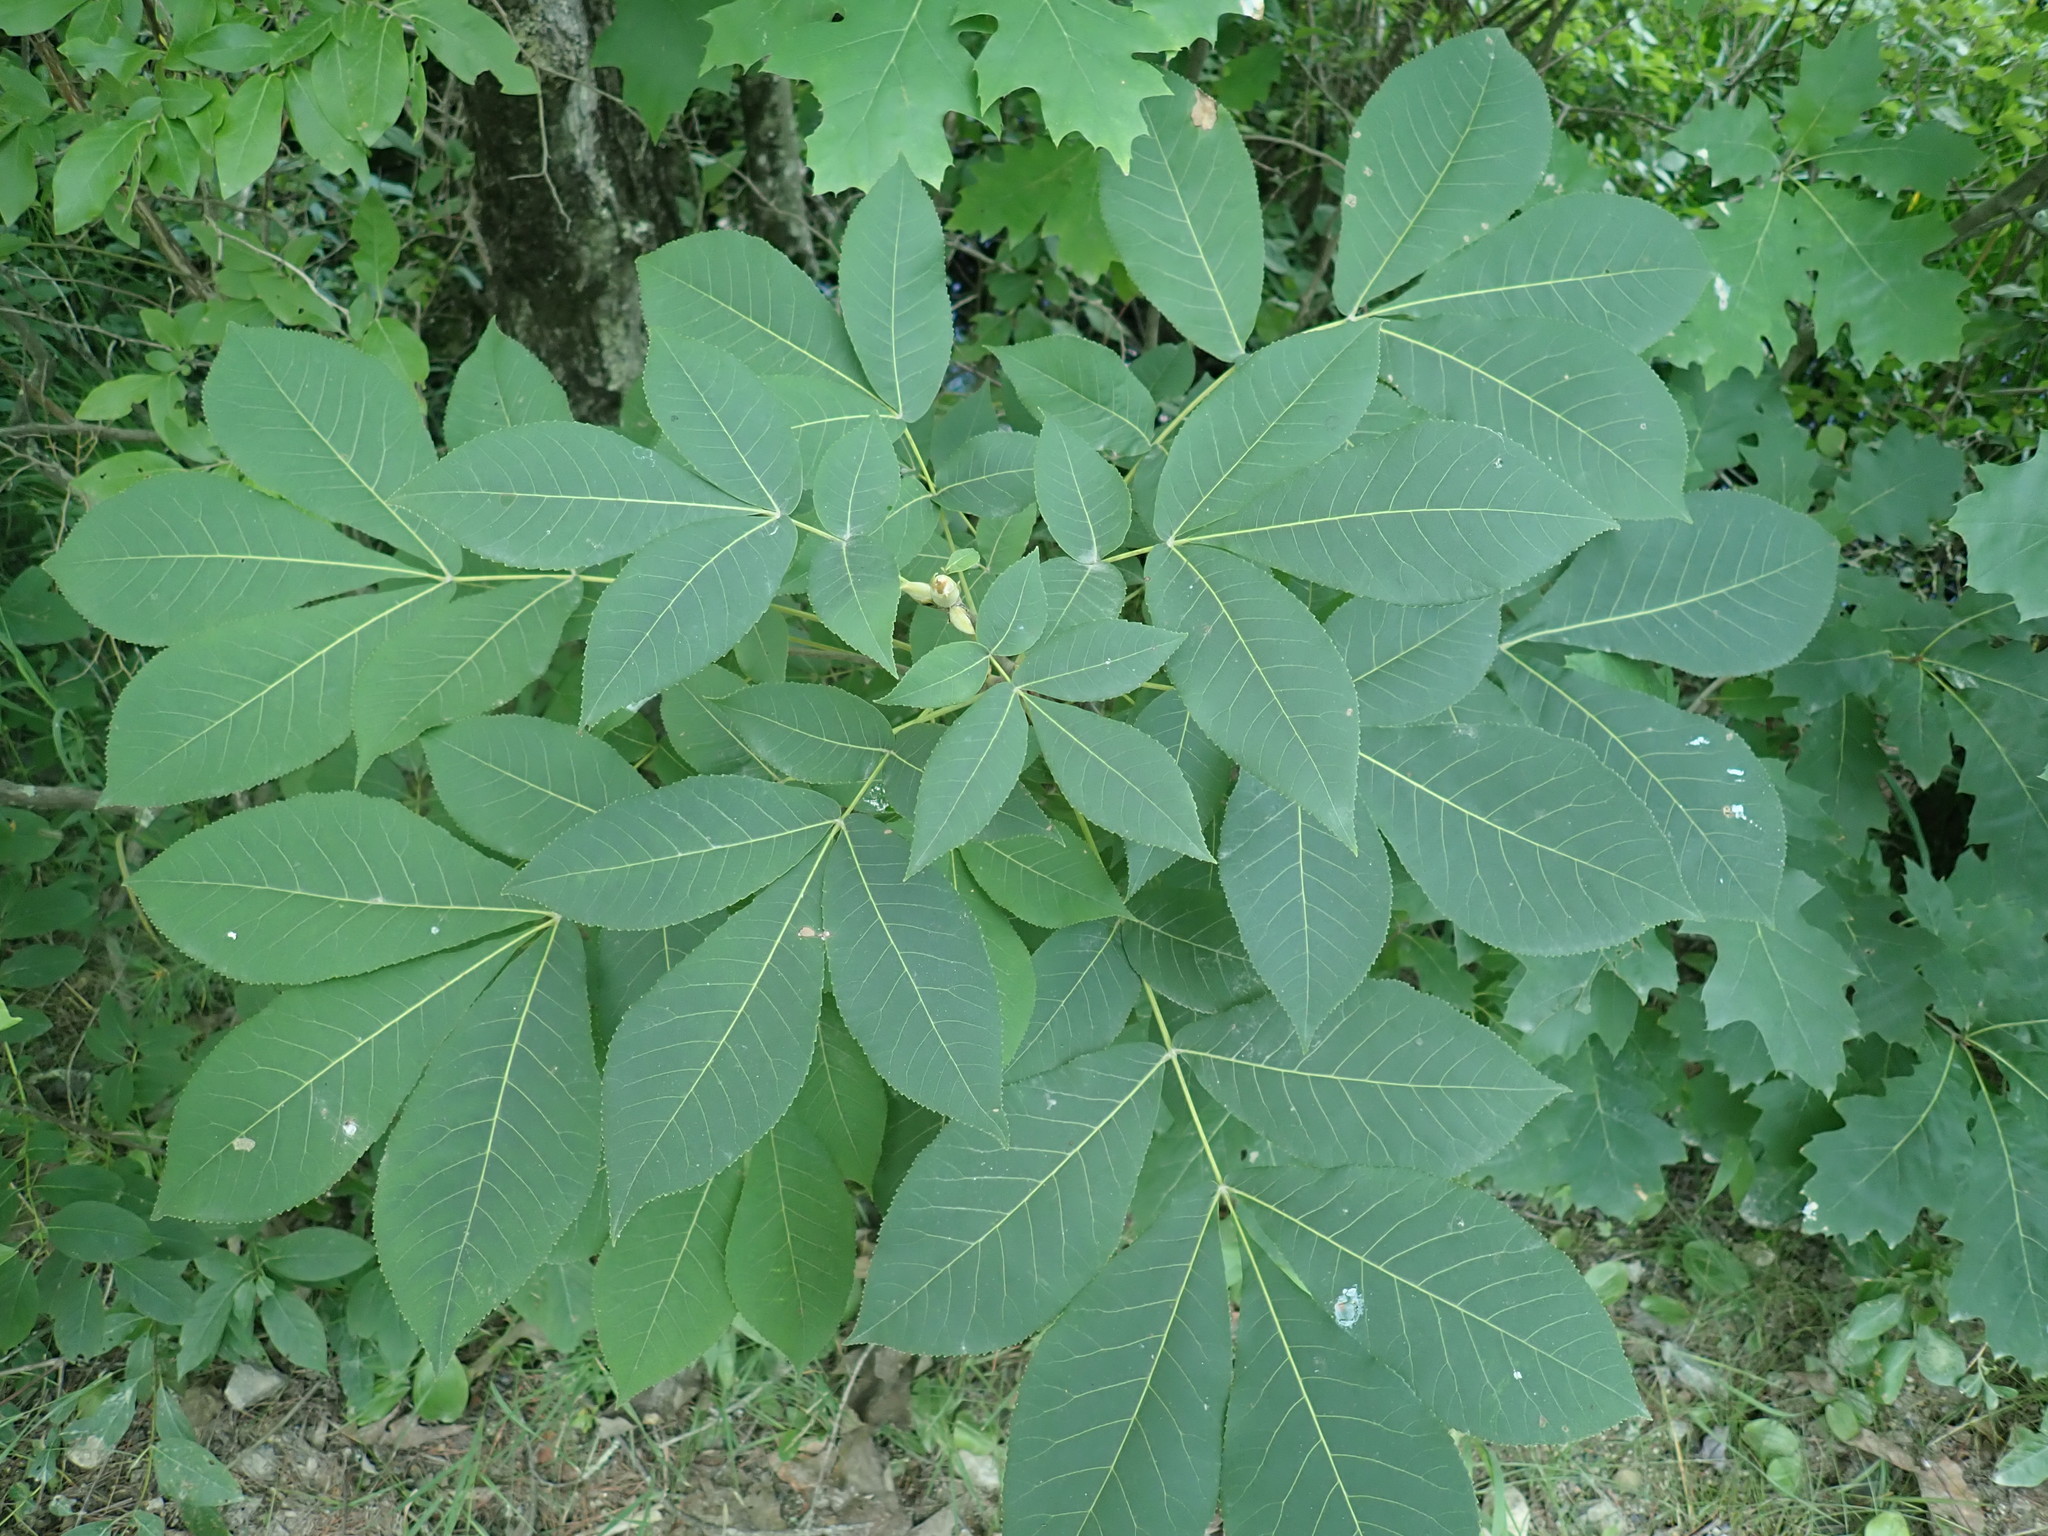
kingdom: Plantae
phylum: Tracheophyta
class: Magnoliopsida
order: Fagales
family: Juglandaceae
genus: Carya
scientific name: Carya
